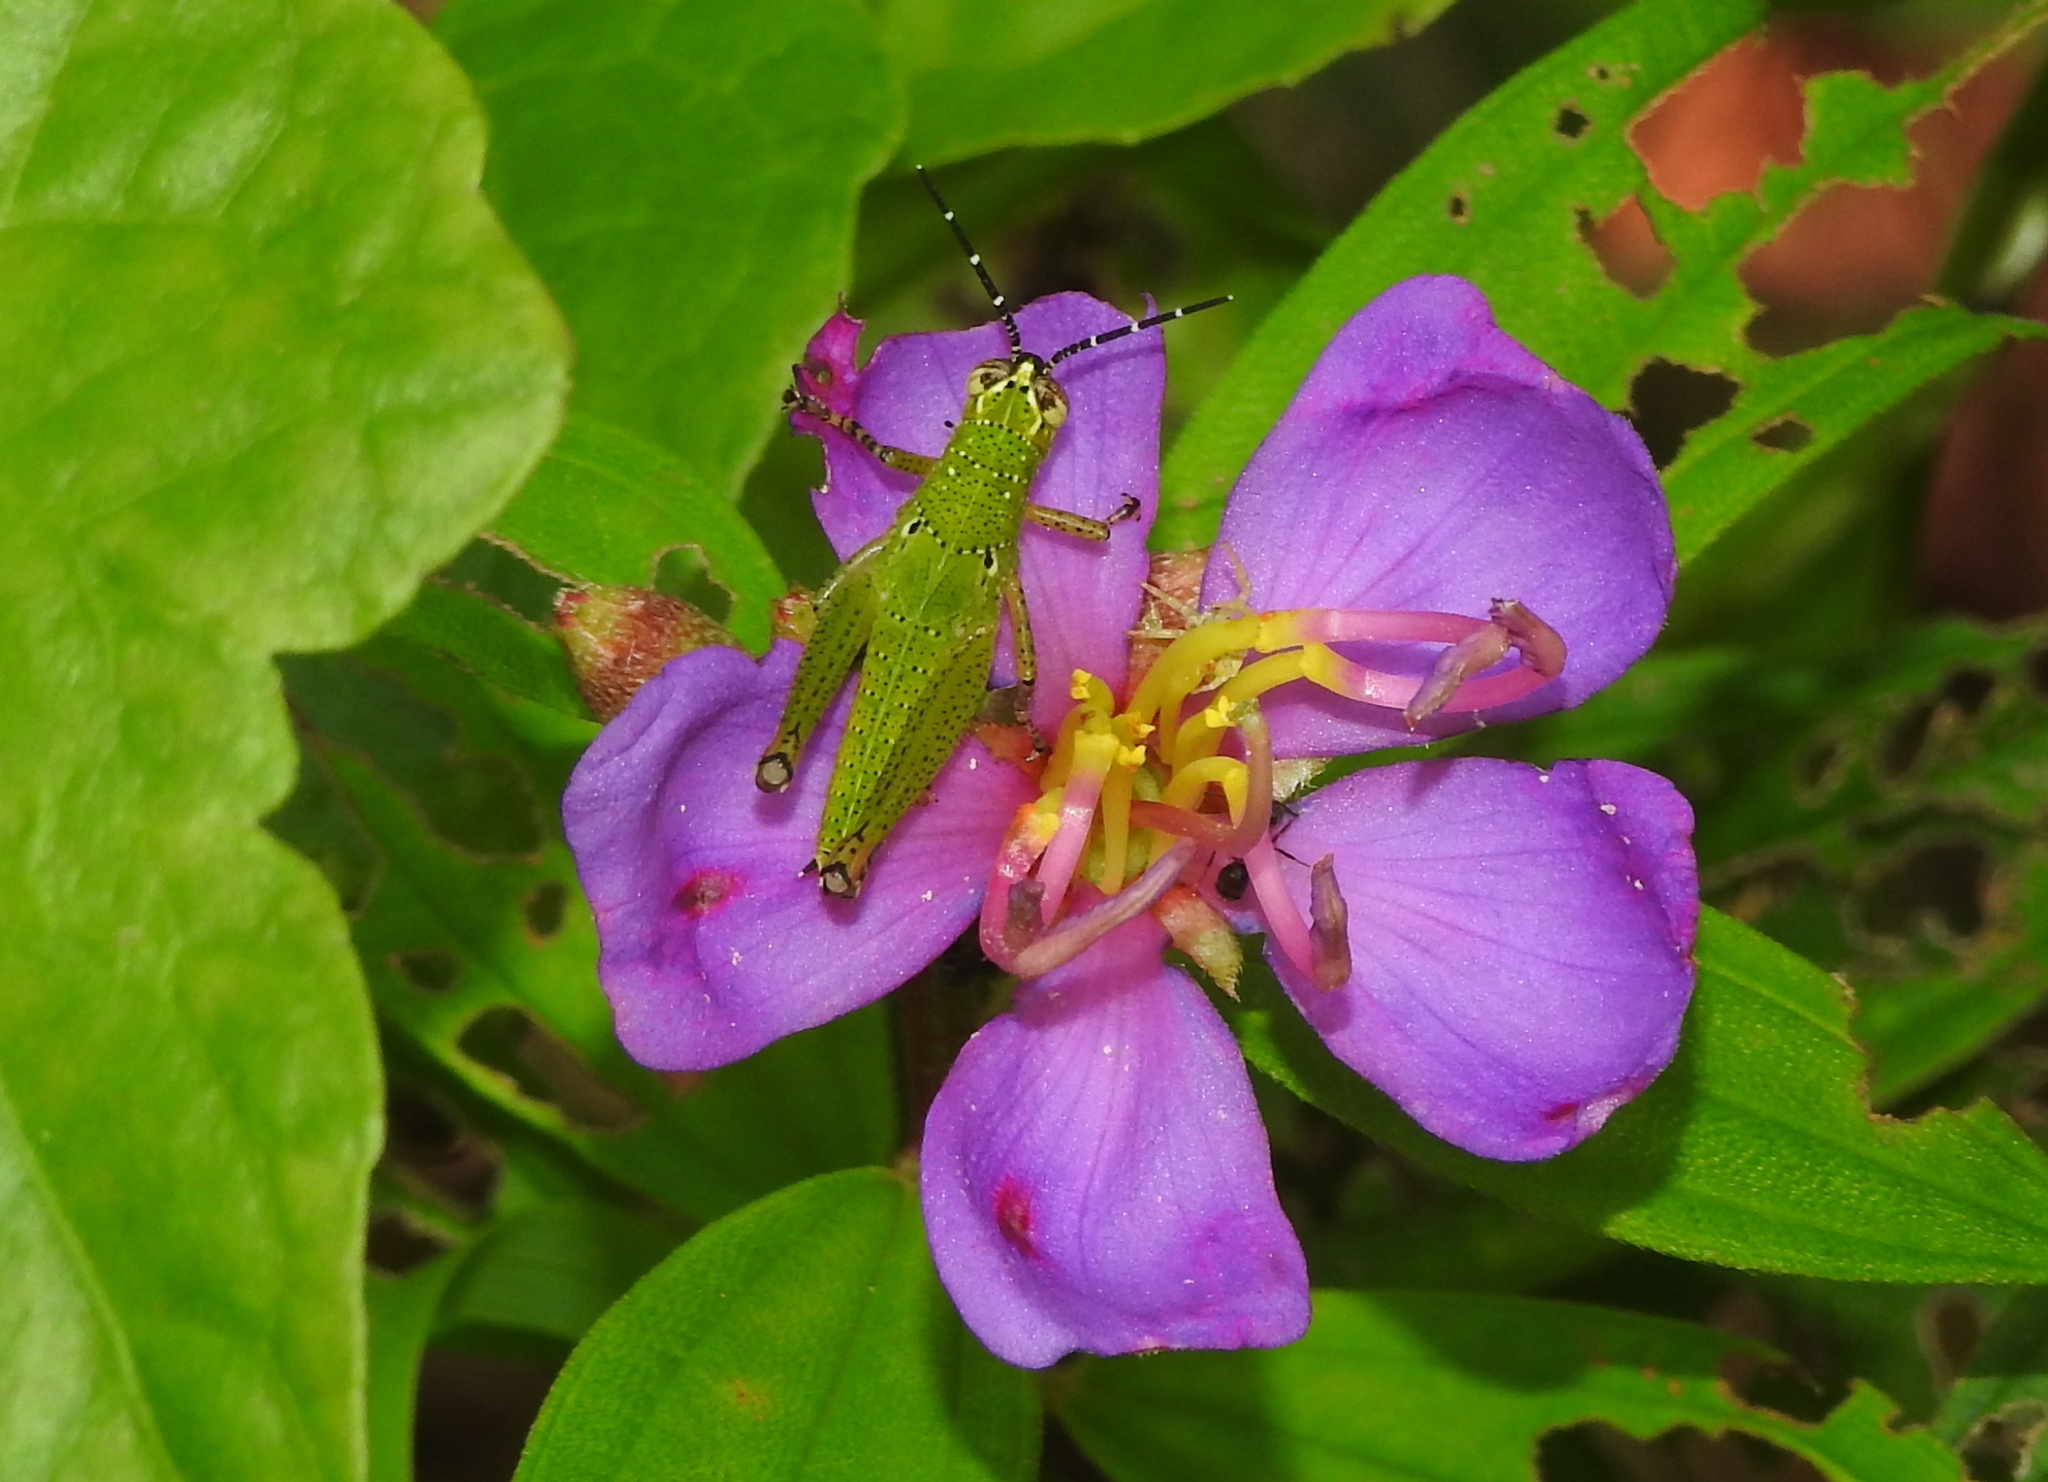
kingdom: Animalia
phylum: Arthropoda
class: Insecta
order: Orthoptera
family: Acrididae
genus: Xenocatantops
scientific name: Xenocatantops humile
